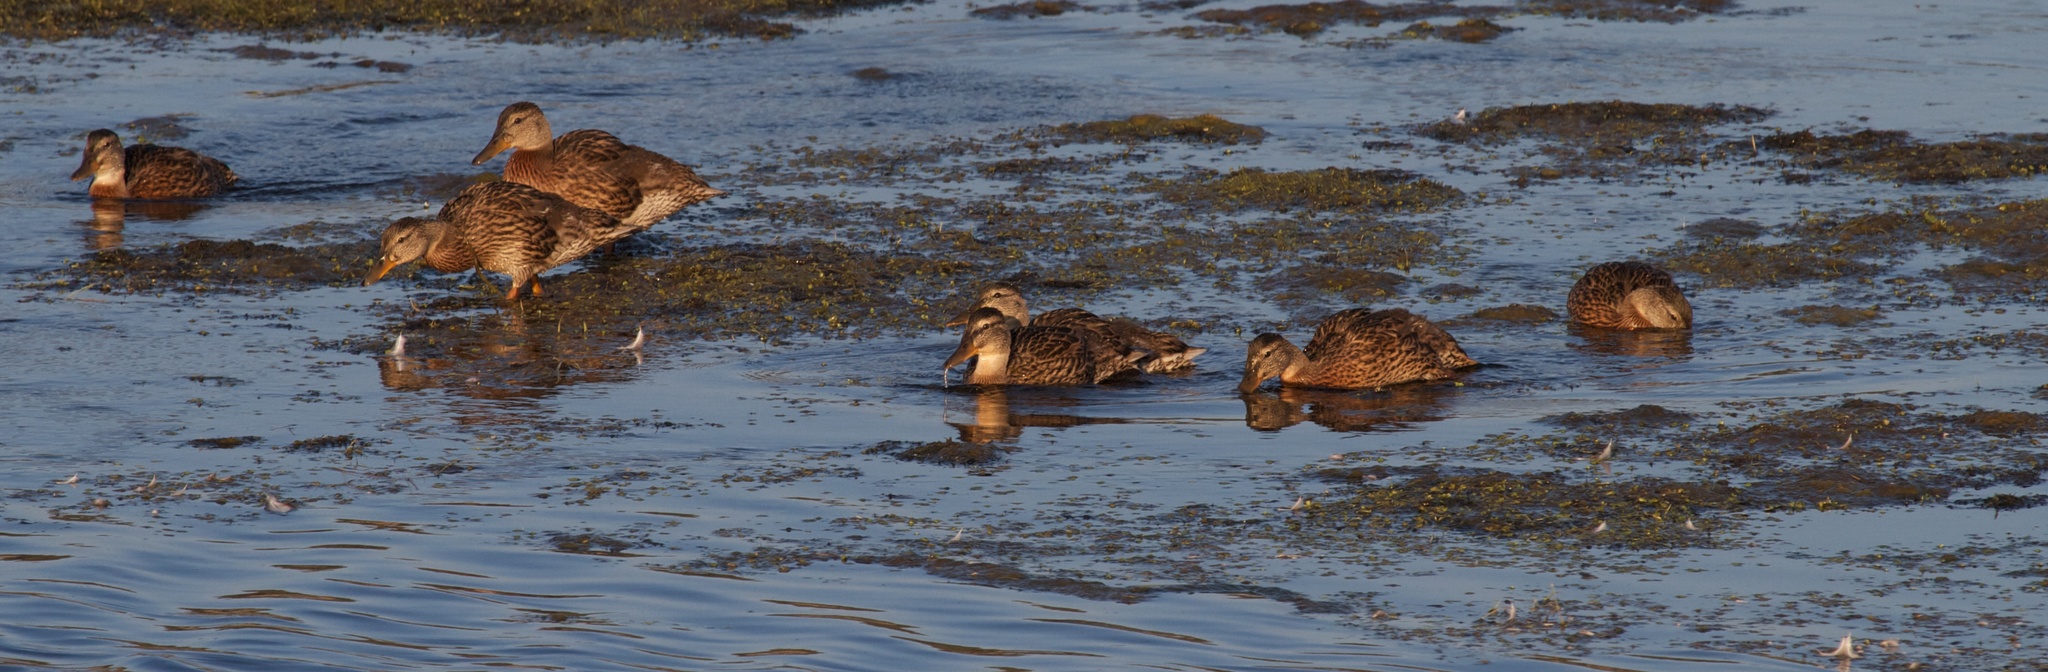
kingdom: Animalia
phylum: Chordata
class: Aves
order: Anseriformes
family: Anatidae
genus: Anas
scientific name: Anas platyrhynchos
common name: Mallard
